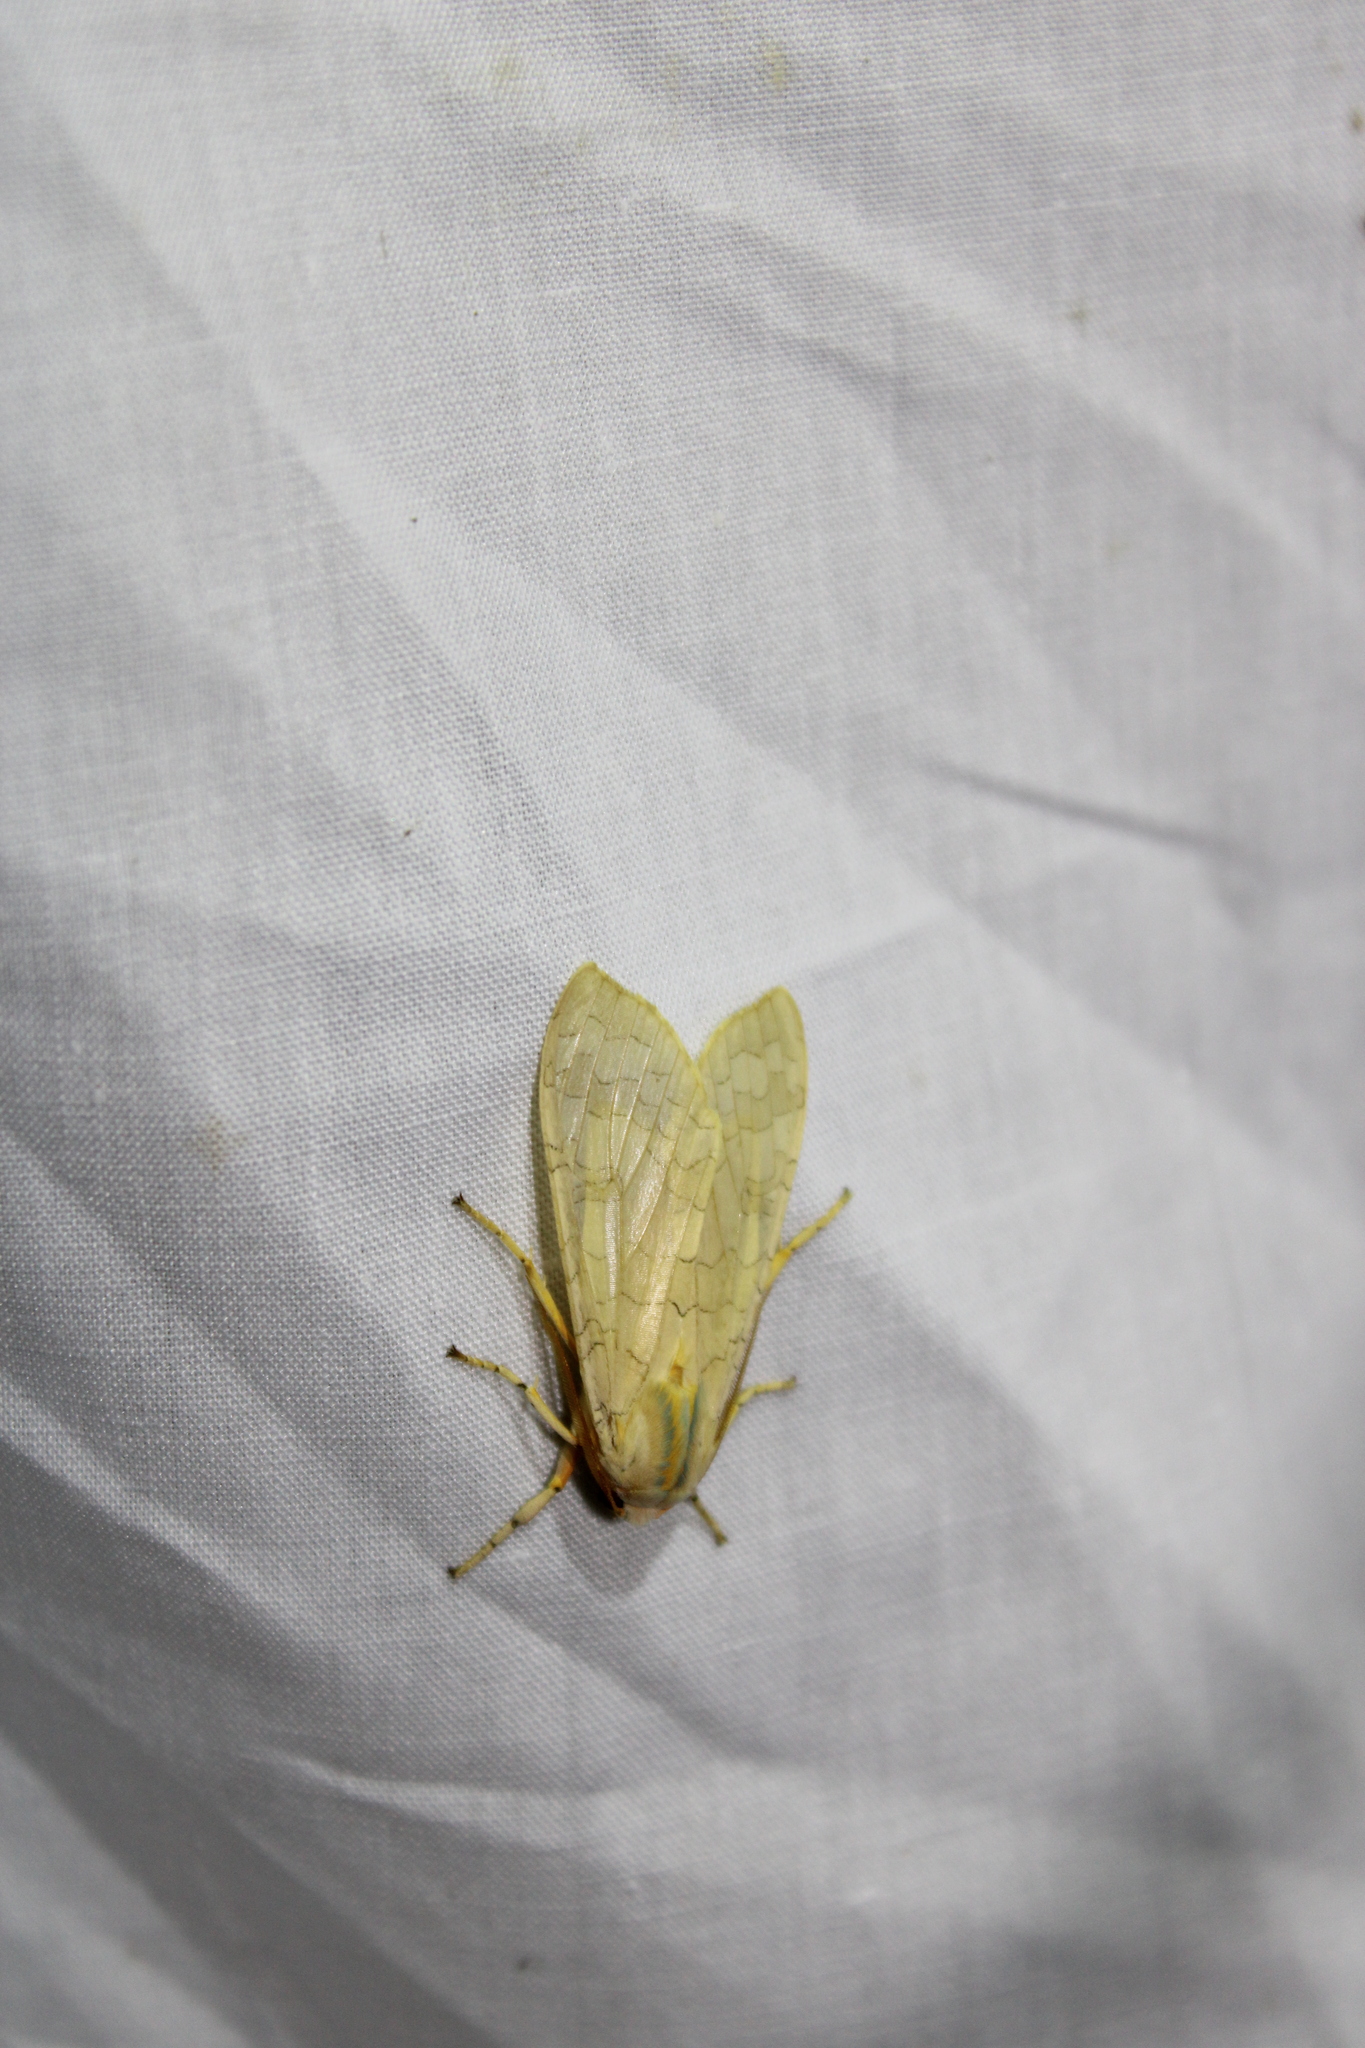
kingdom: Animalia
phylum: Arthropoda
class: Insecta
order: Lepidoptera
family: Erebidae
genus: Halysidota
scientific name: Halysidota
